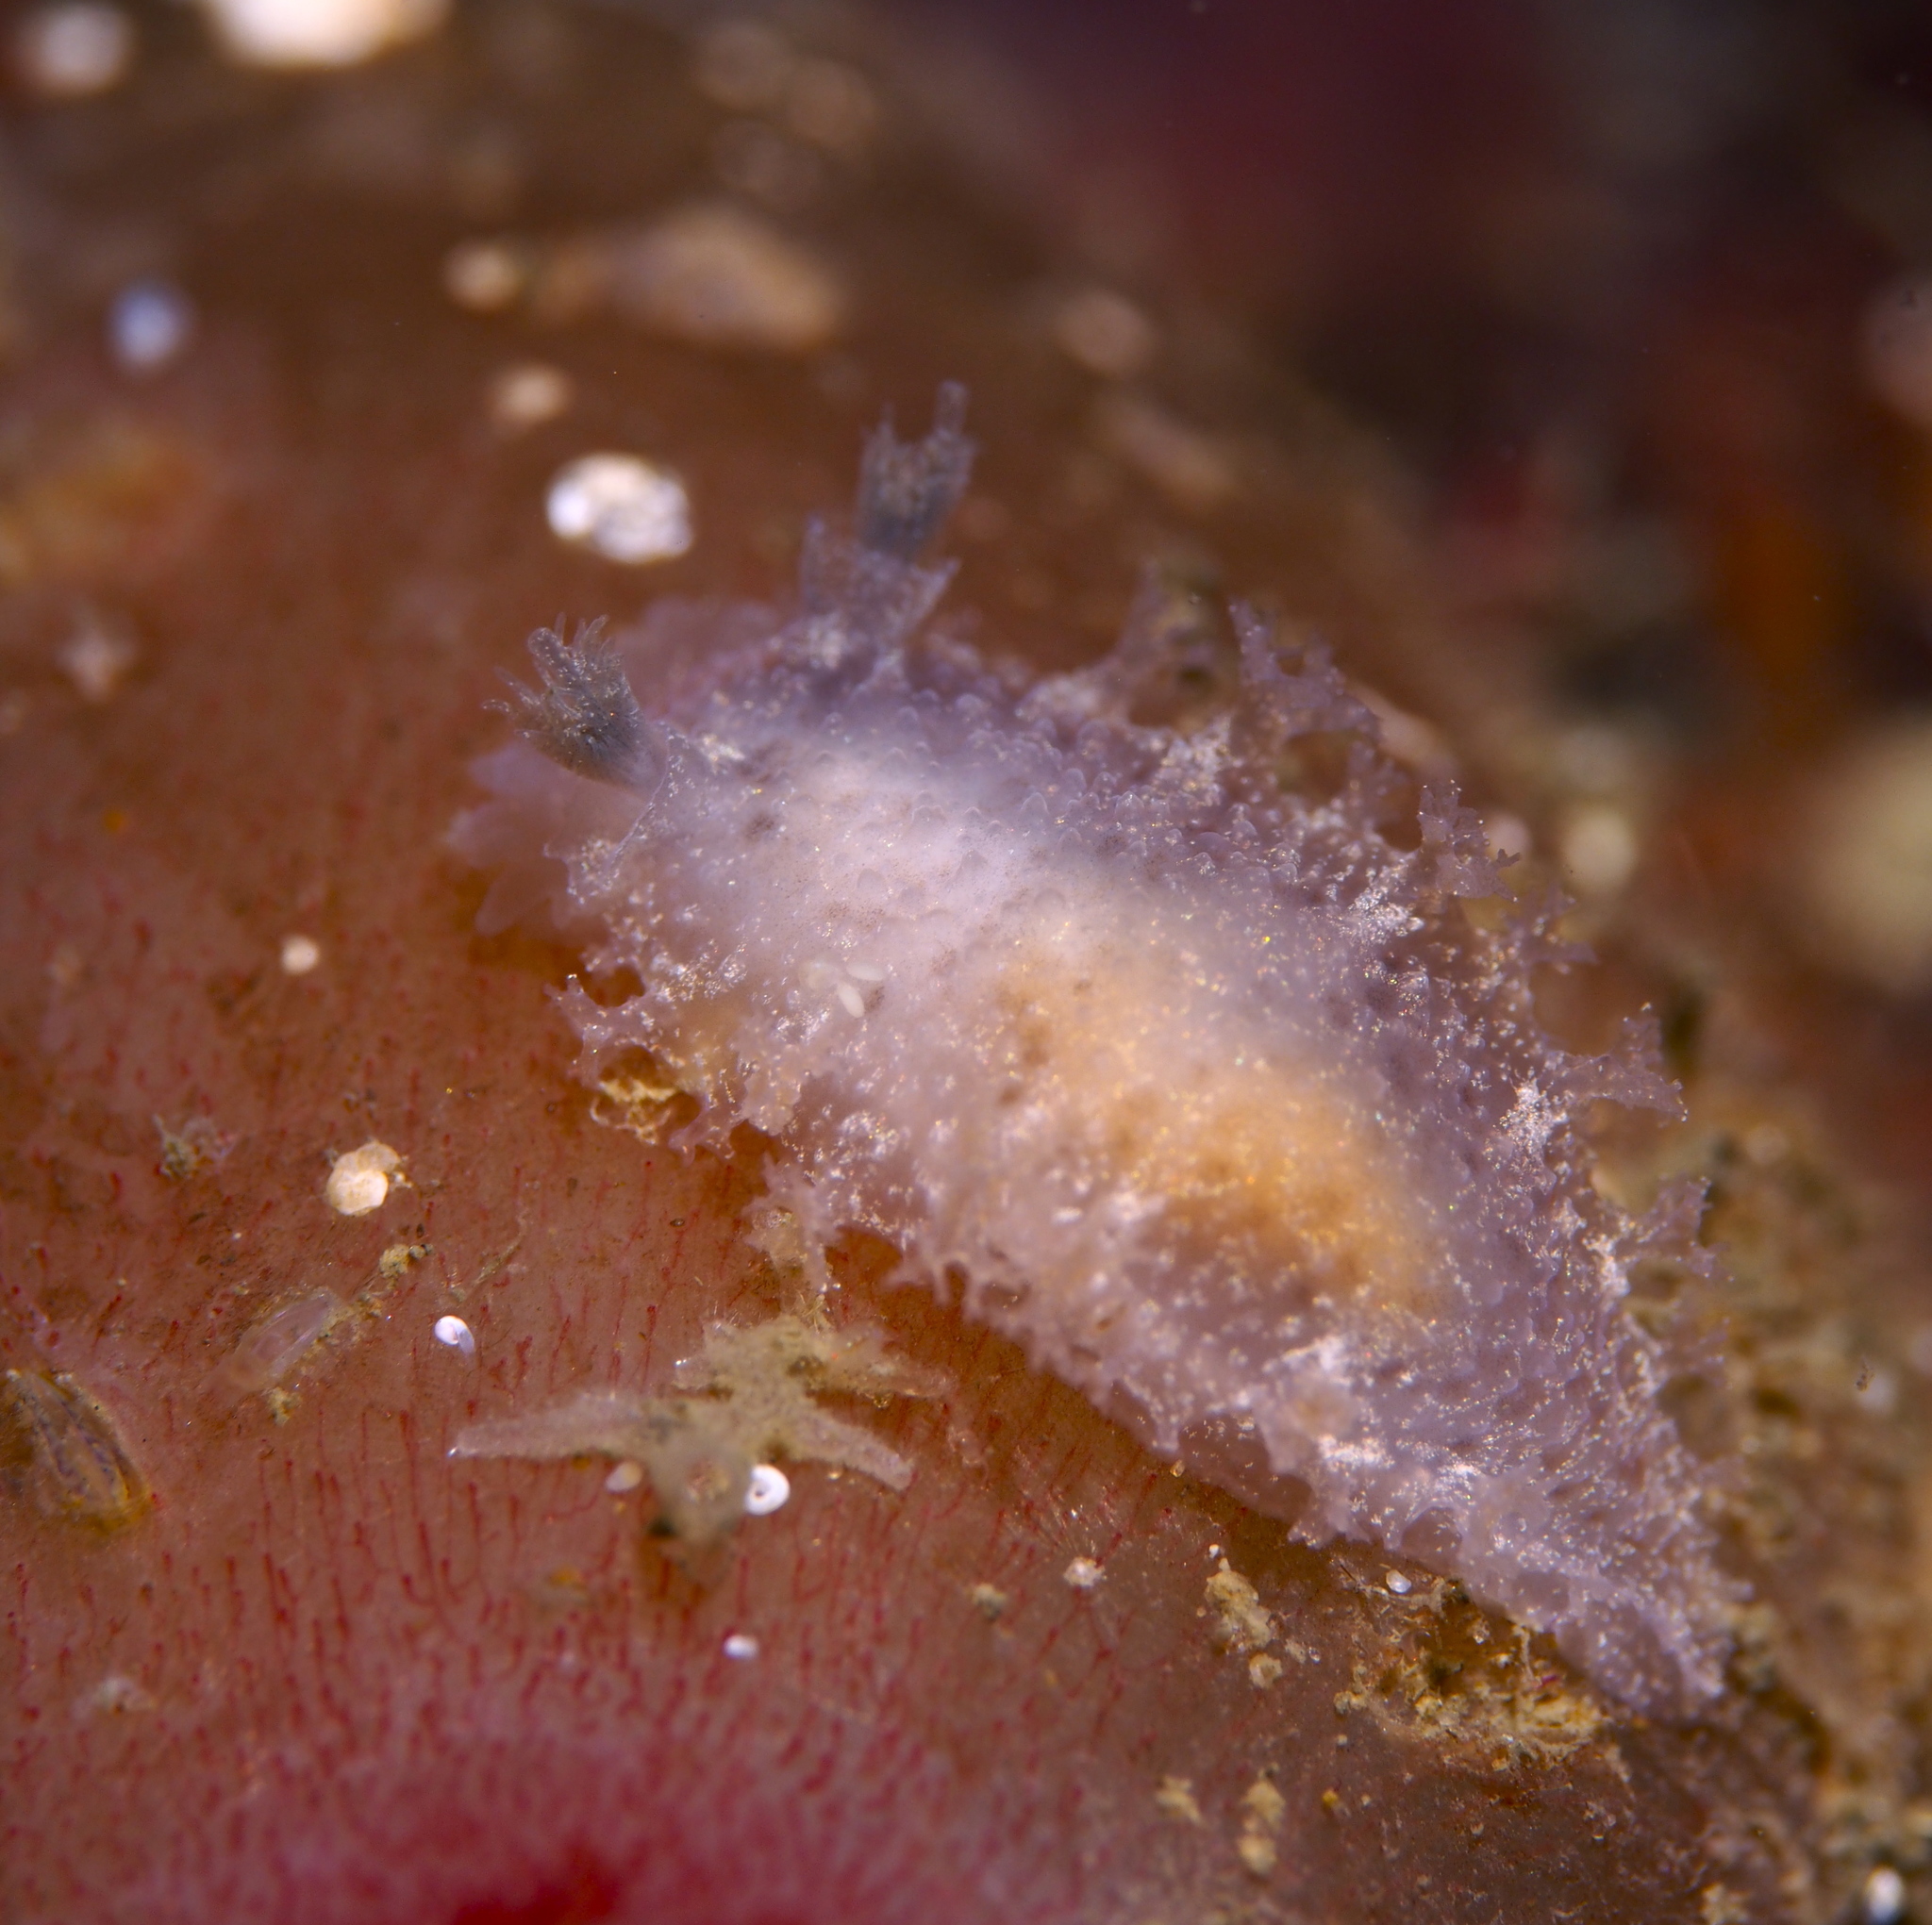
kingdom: Animalia
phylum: Mollusca
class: Gastropoda
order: Nudibranchia
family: Tritoniidae
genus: Tritonia
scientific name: Tritonia hombergii
